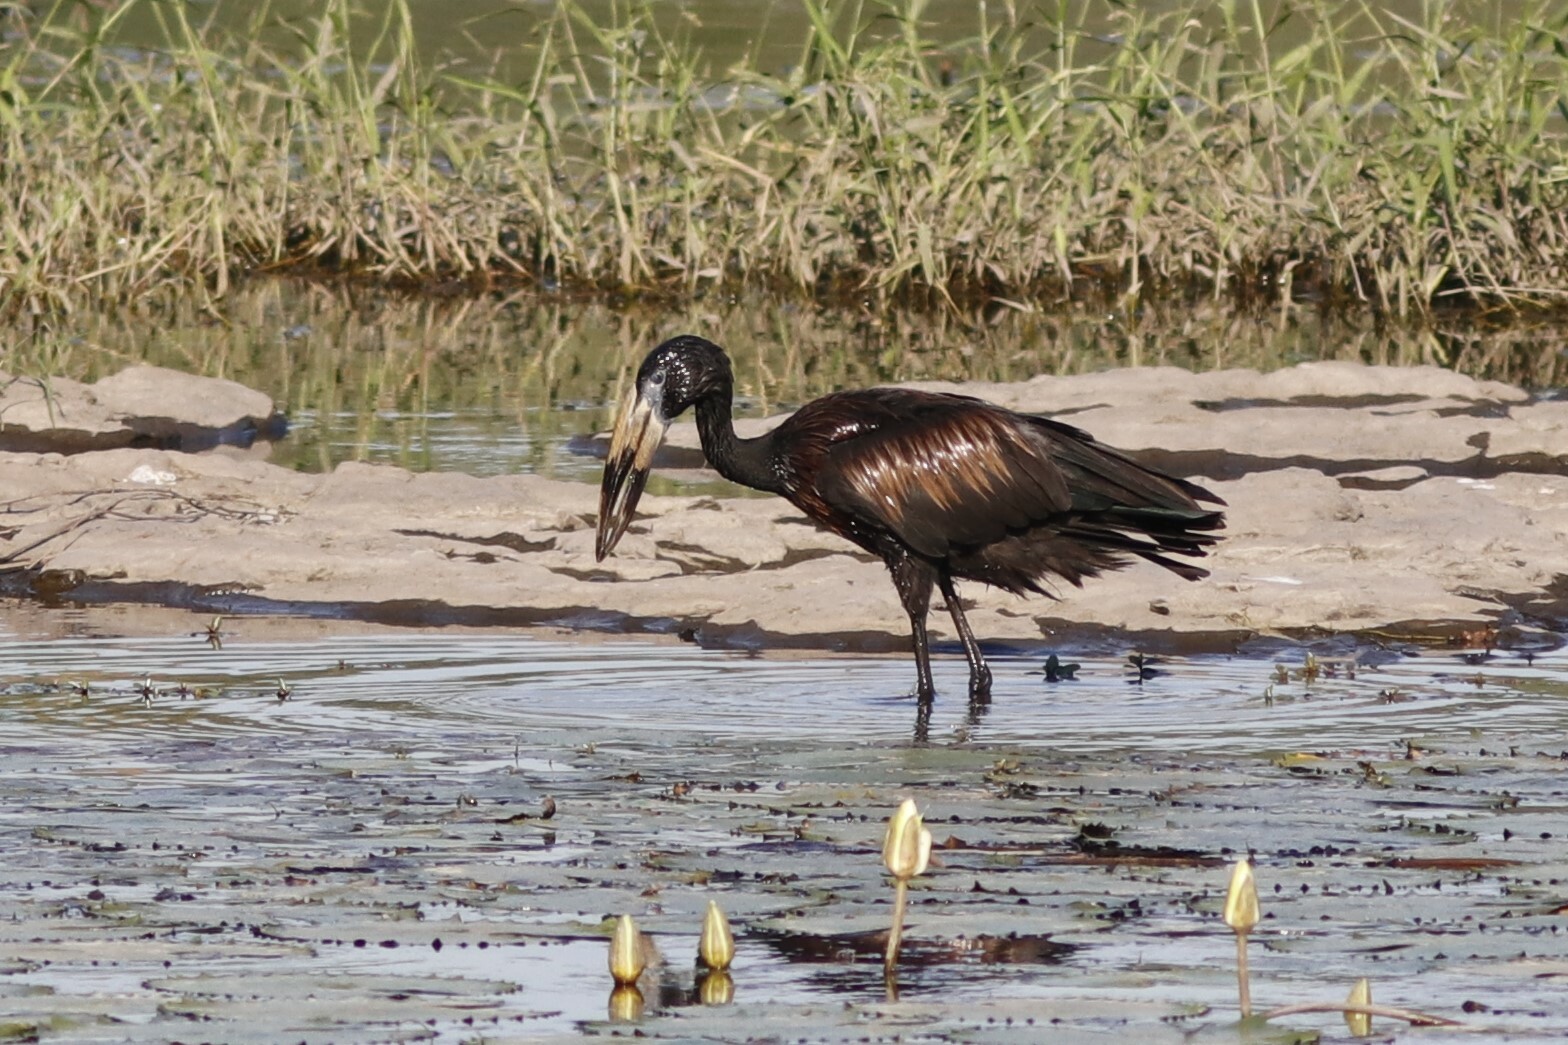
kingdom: Animalia
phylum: Chordata
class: Aves
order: Ciconiiformes
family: Ciconiidae
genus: Anastomus
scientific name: Anastomus lamelligerus
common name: African openbill
